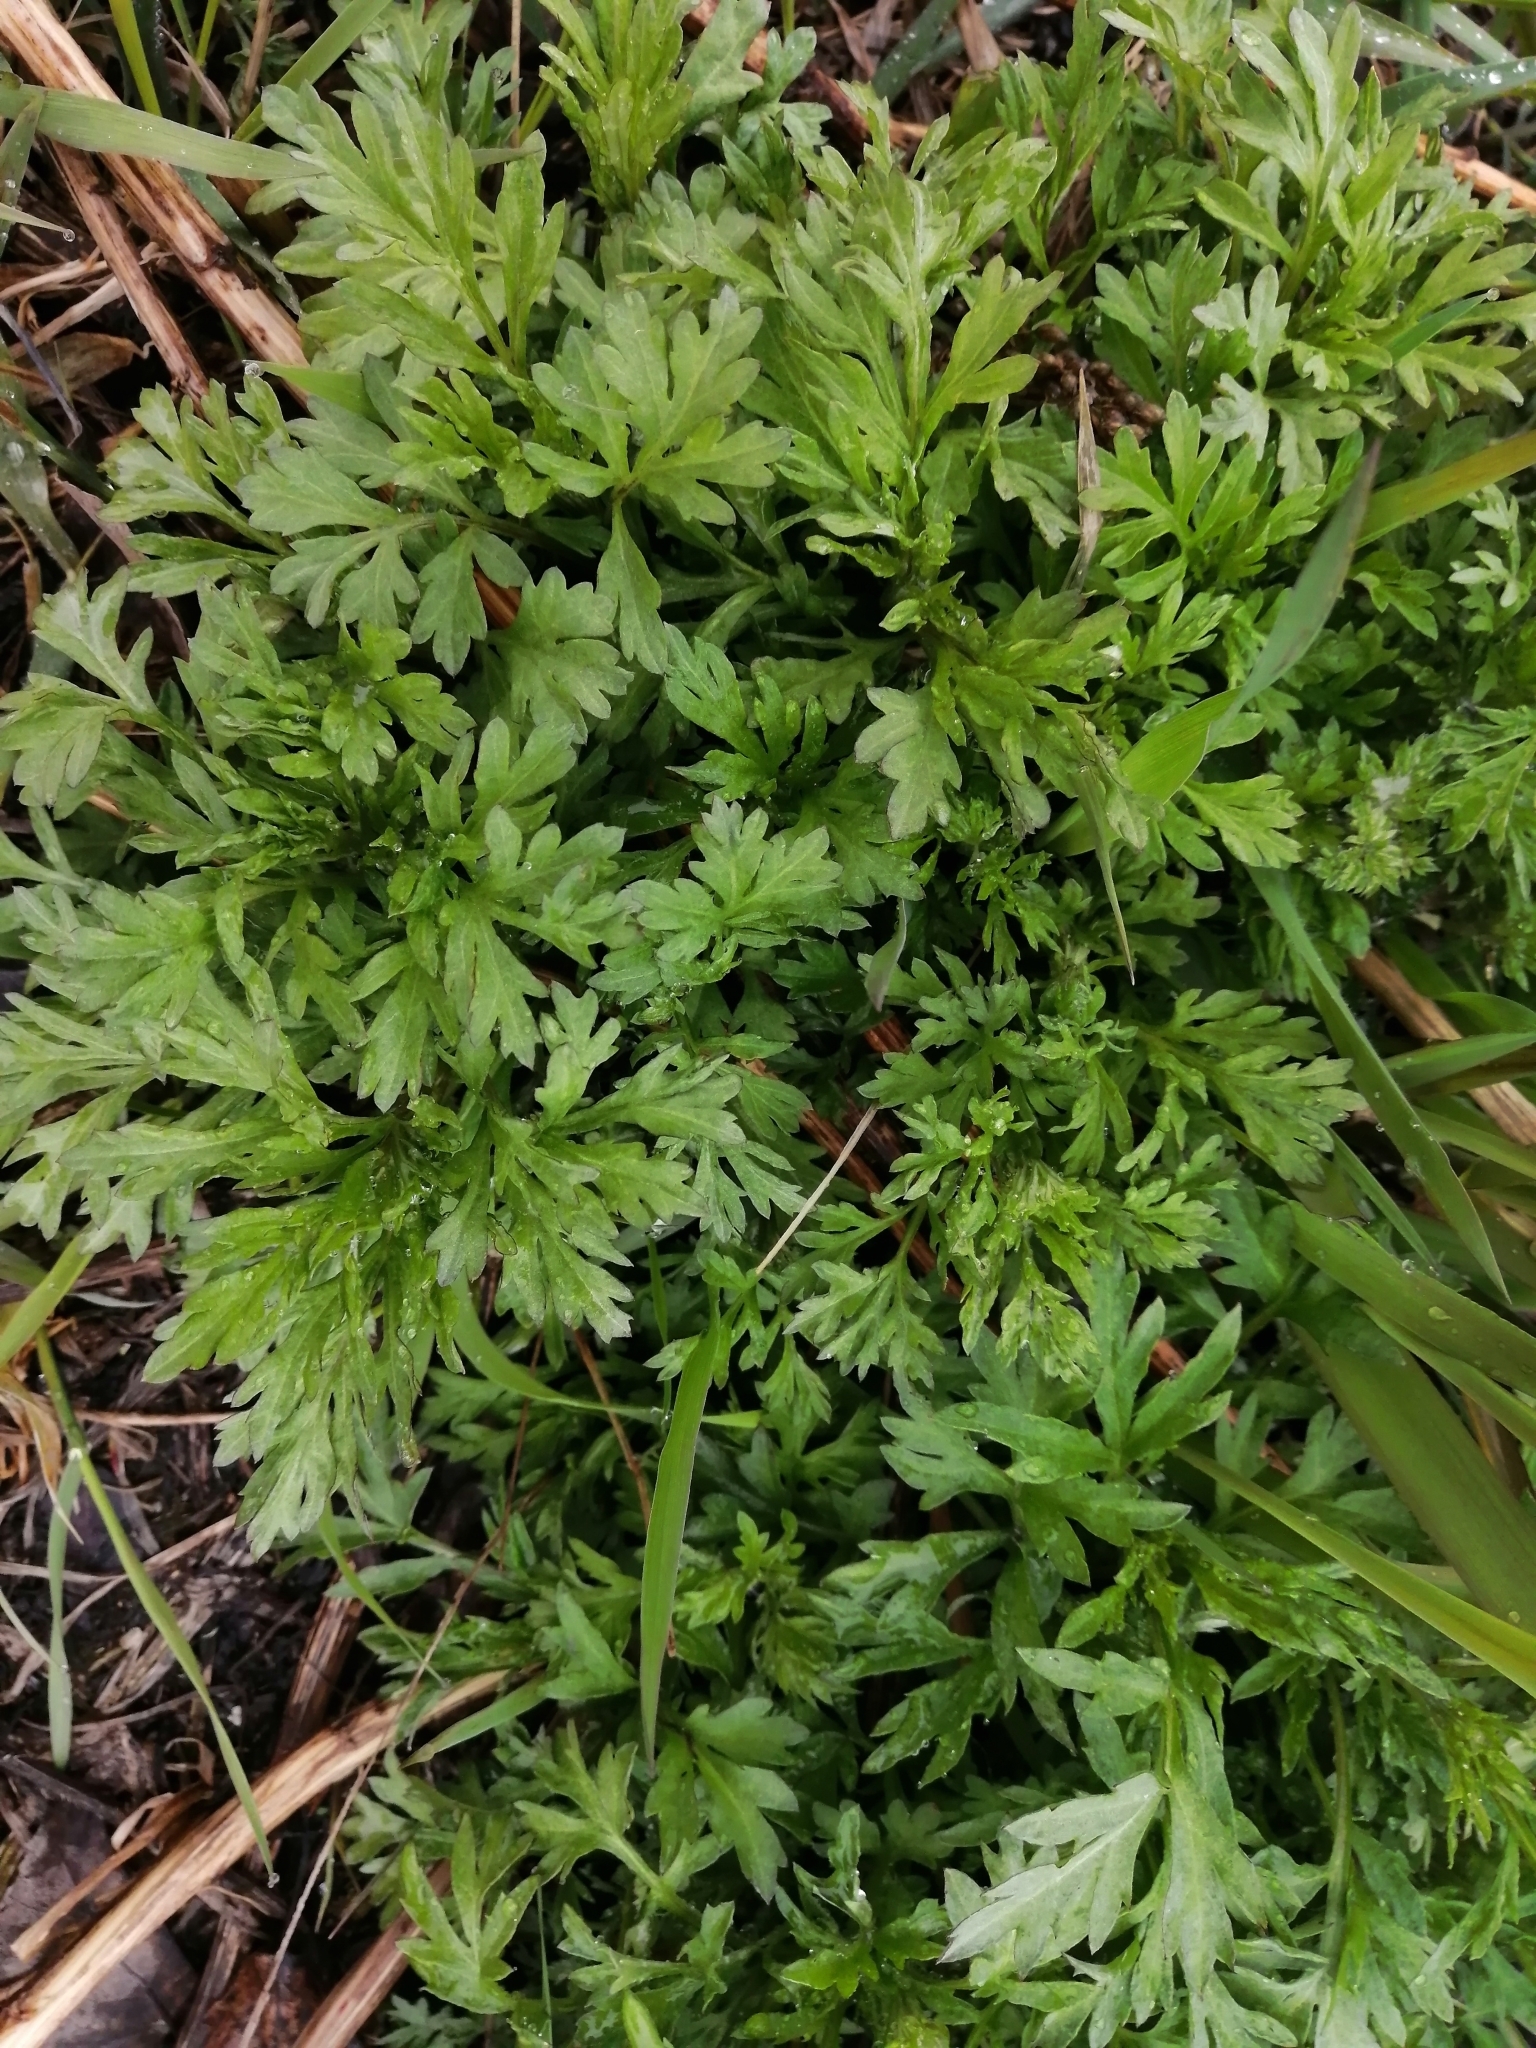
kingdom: Plantae
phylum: Tracheophyta
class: Magnoliopsida
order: Asterales
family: Asteraceae
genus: Artemisia
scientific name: Artemisia vulgaris
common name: Mugwort
